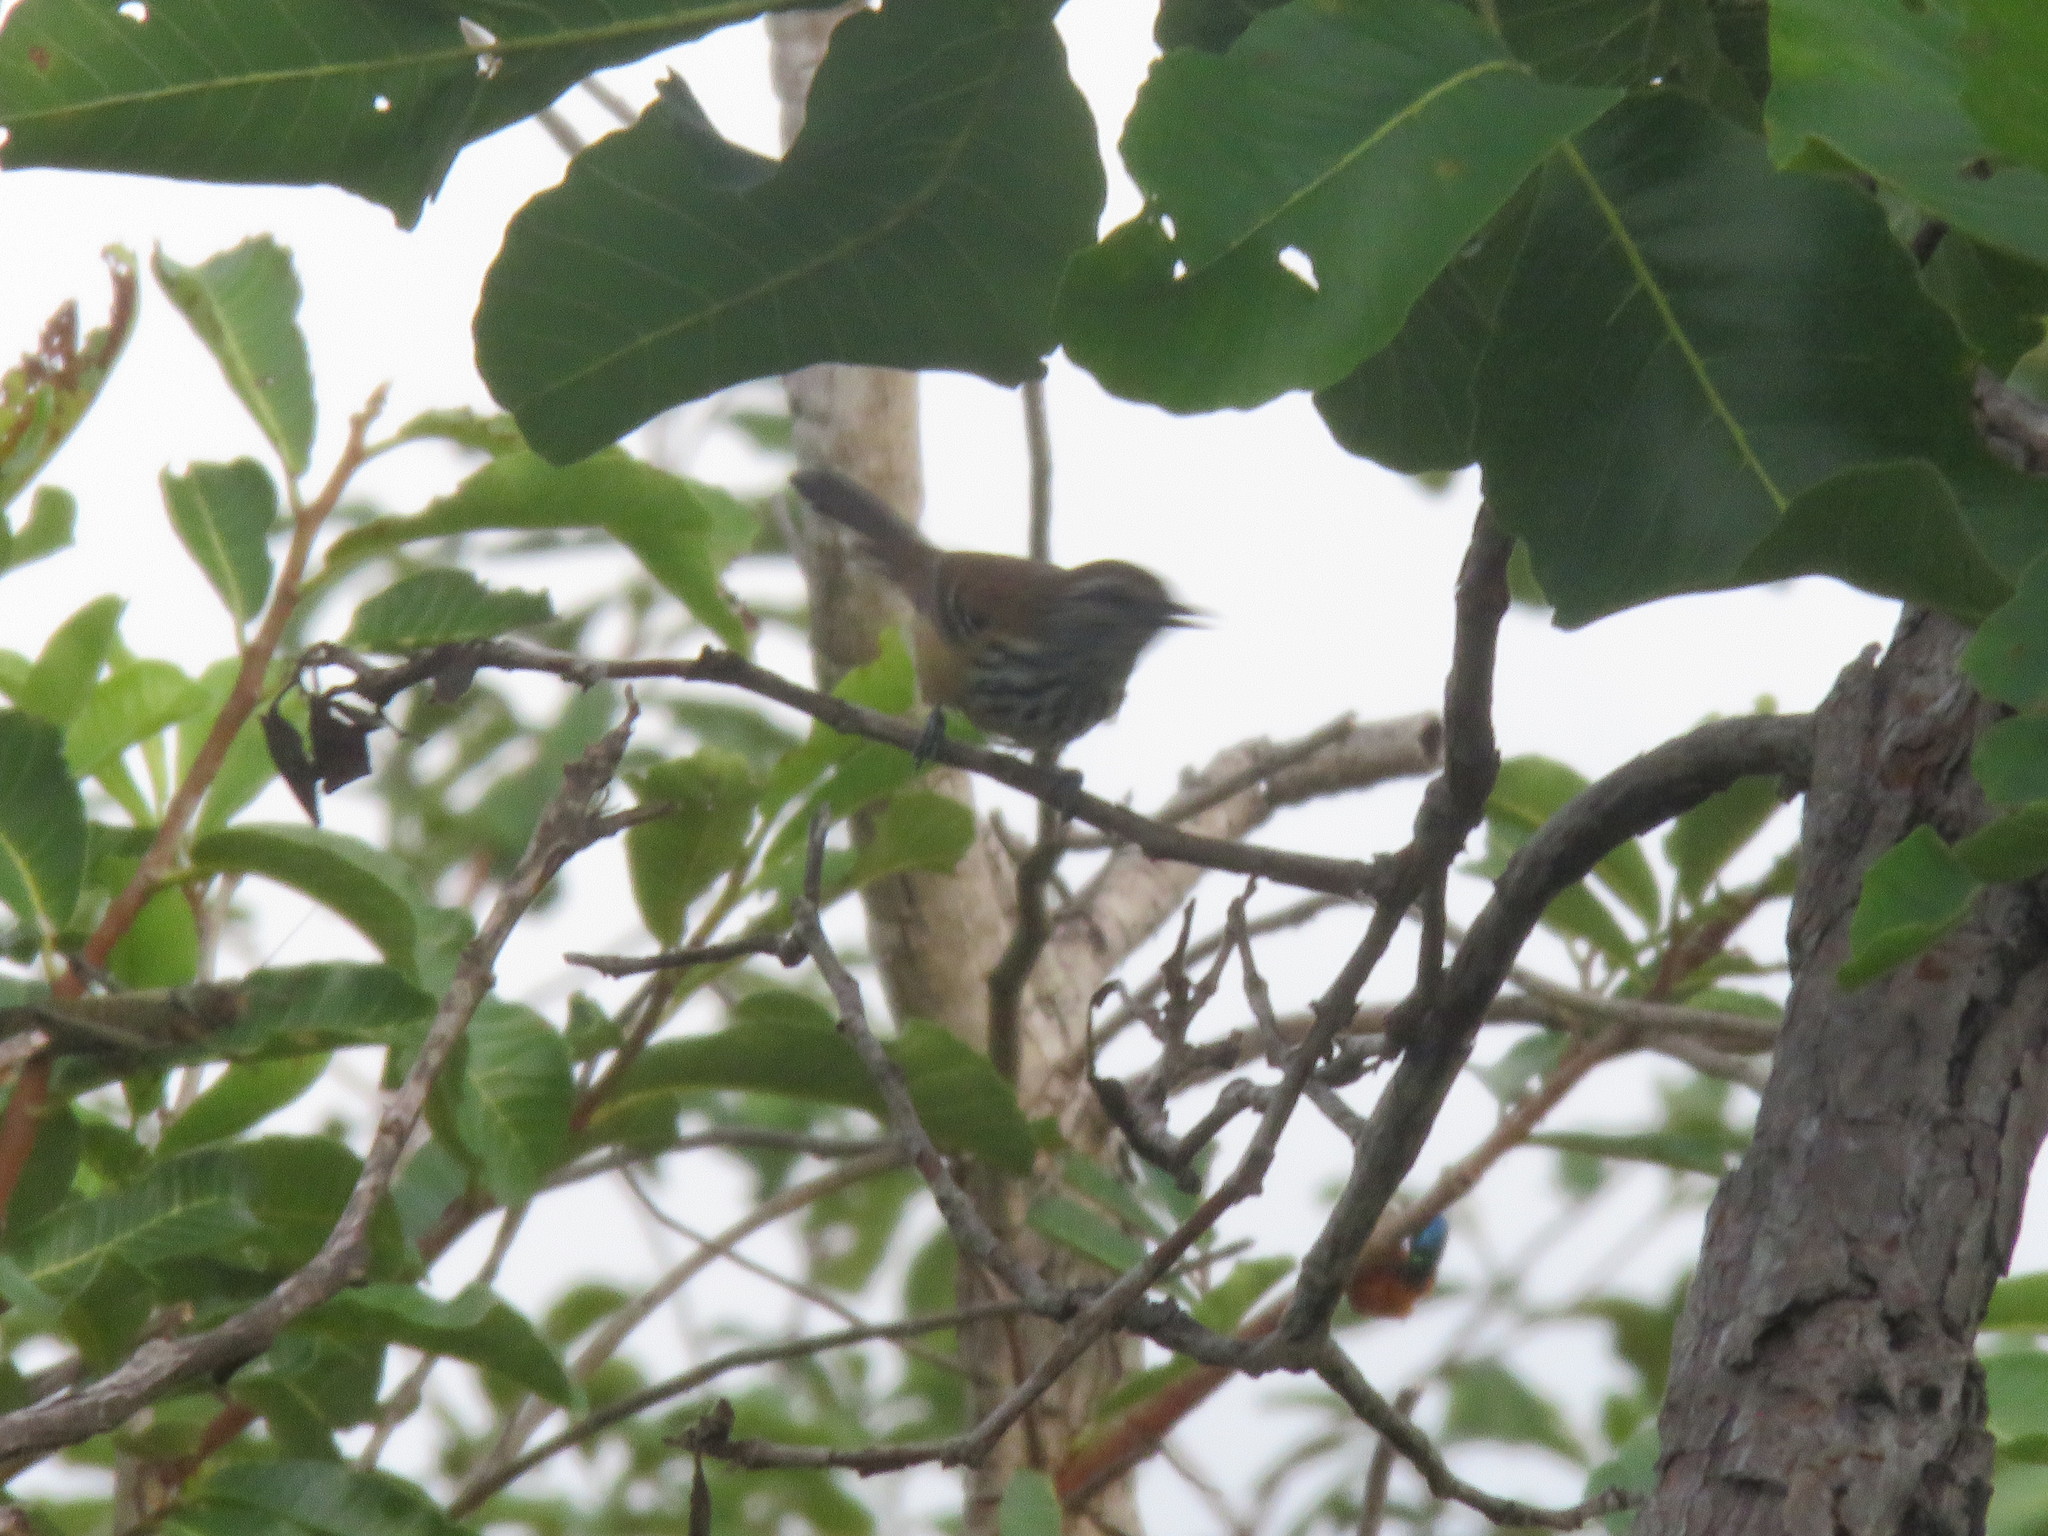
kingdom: Animalia
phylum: Chordata
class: Aves
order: Passeriformes
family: Thamnophilidae
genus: Formicivora
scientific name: Formicivora rufa
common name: Rusty-backed antwren
